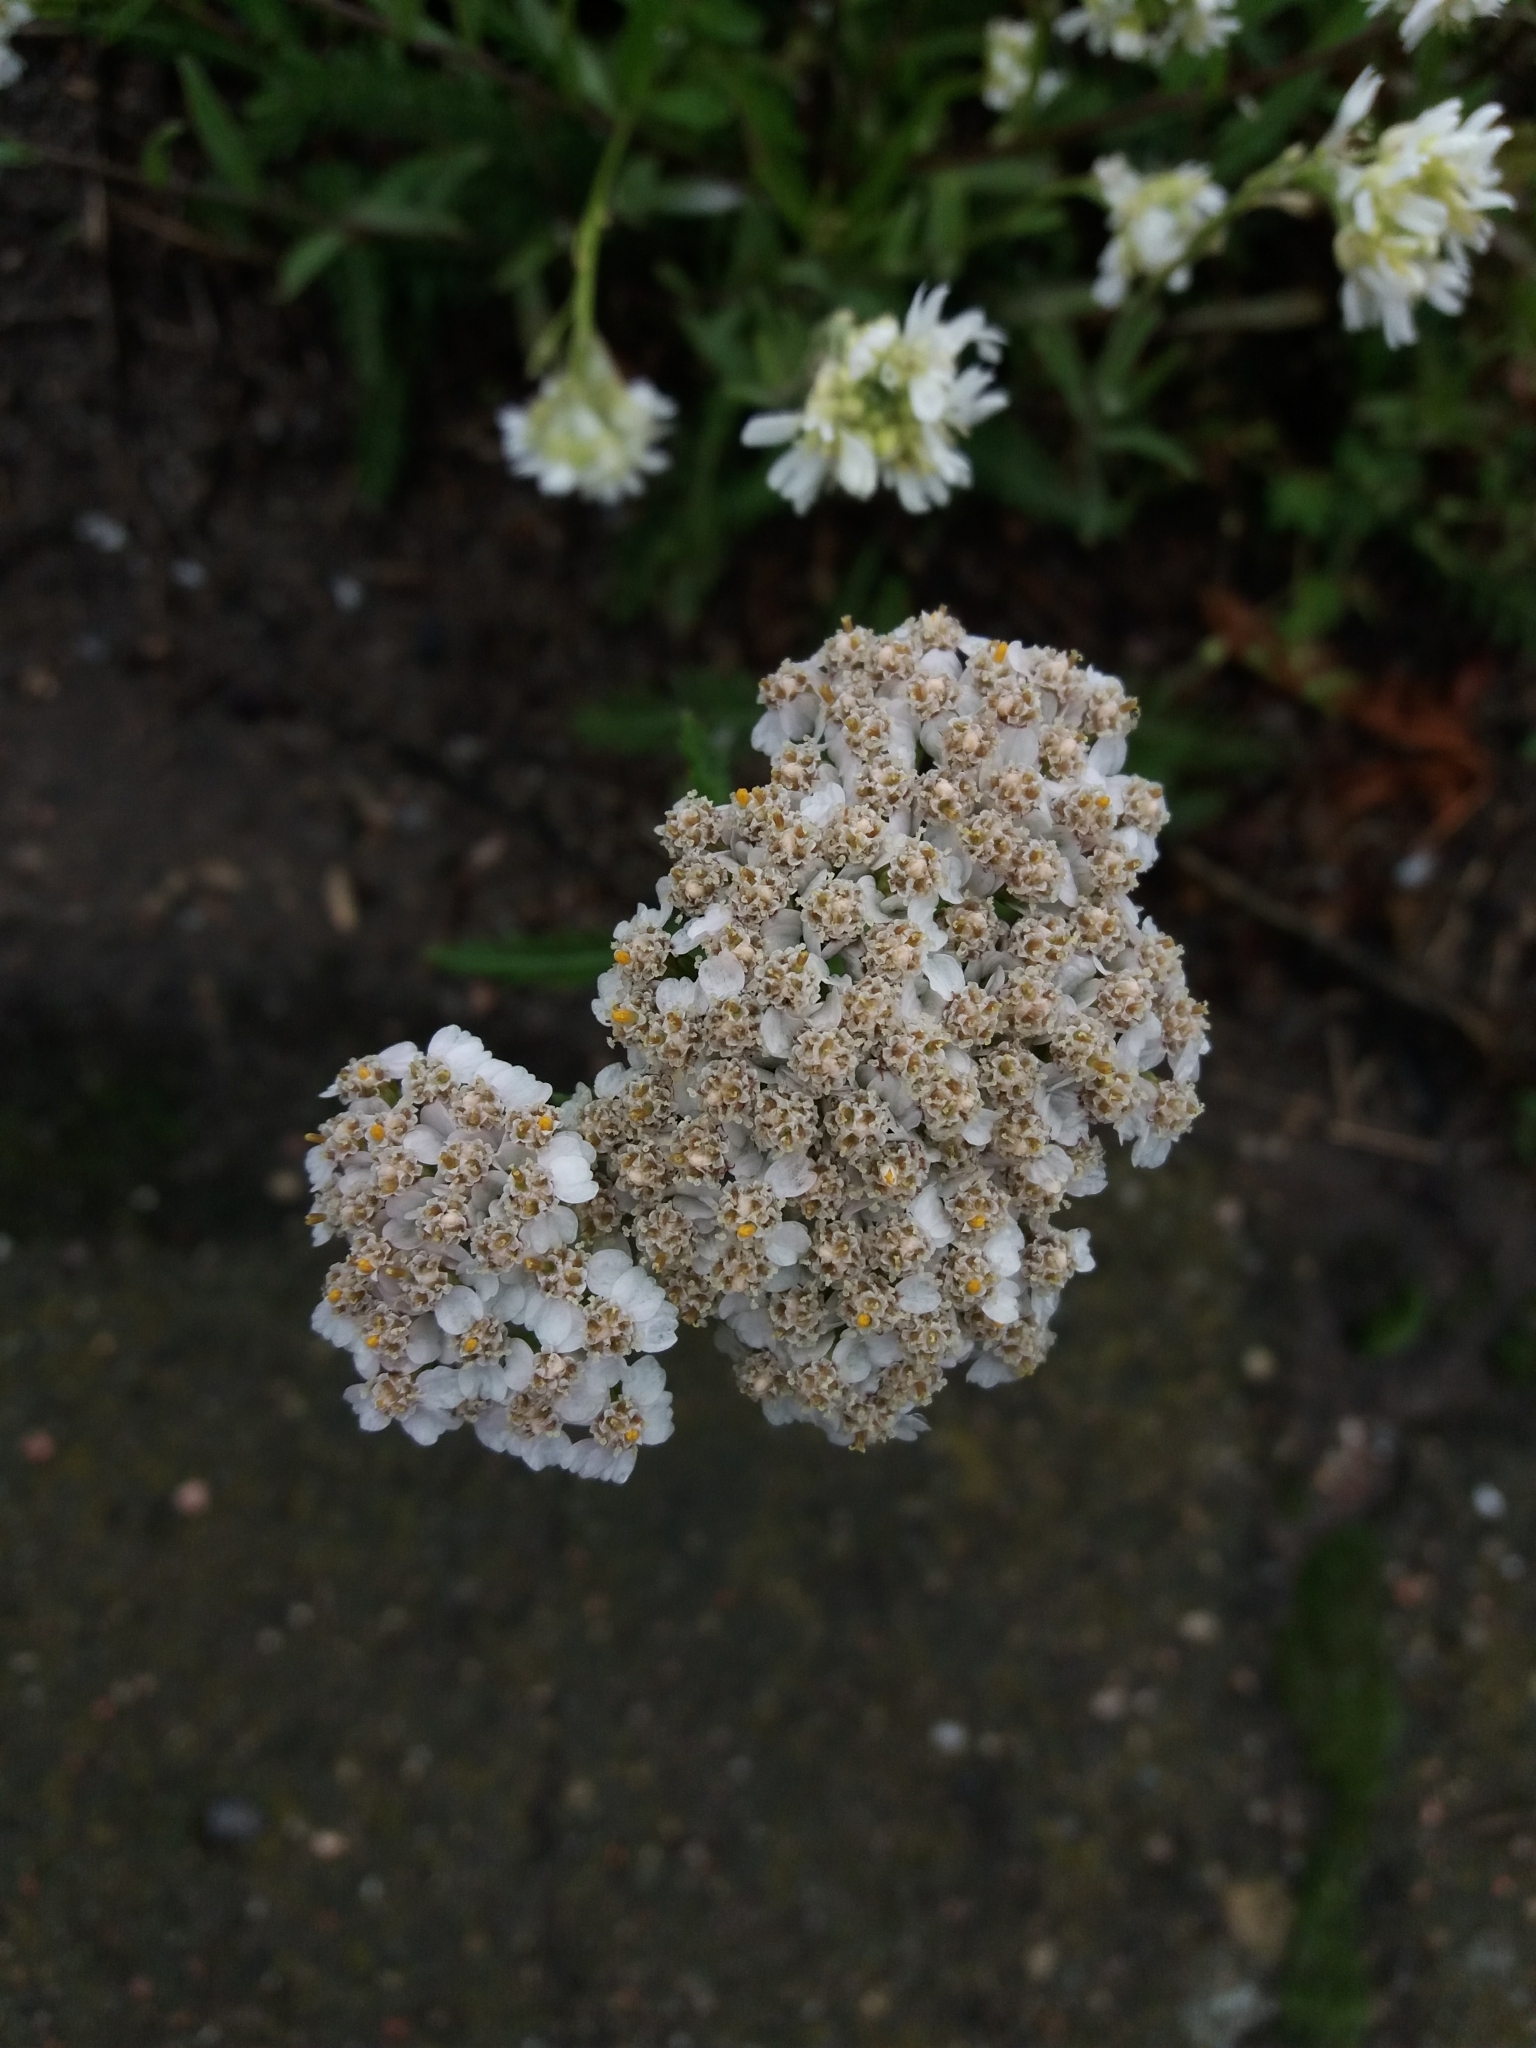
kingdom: Plantae
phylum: Tracheophyta
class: Magnoliopsida
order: Asterales
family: Asteraceae
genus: Achillea
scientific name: Achillea millefolium
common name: Yarrow
